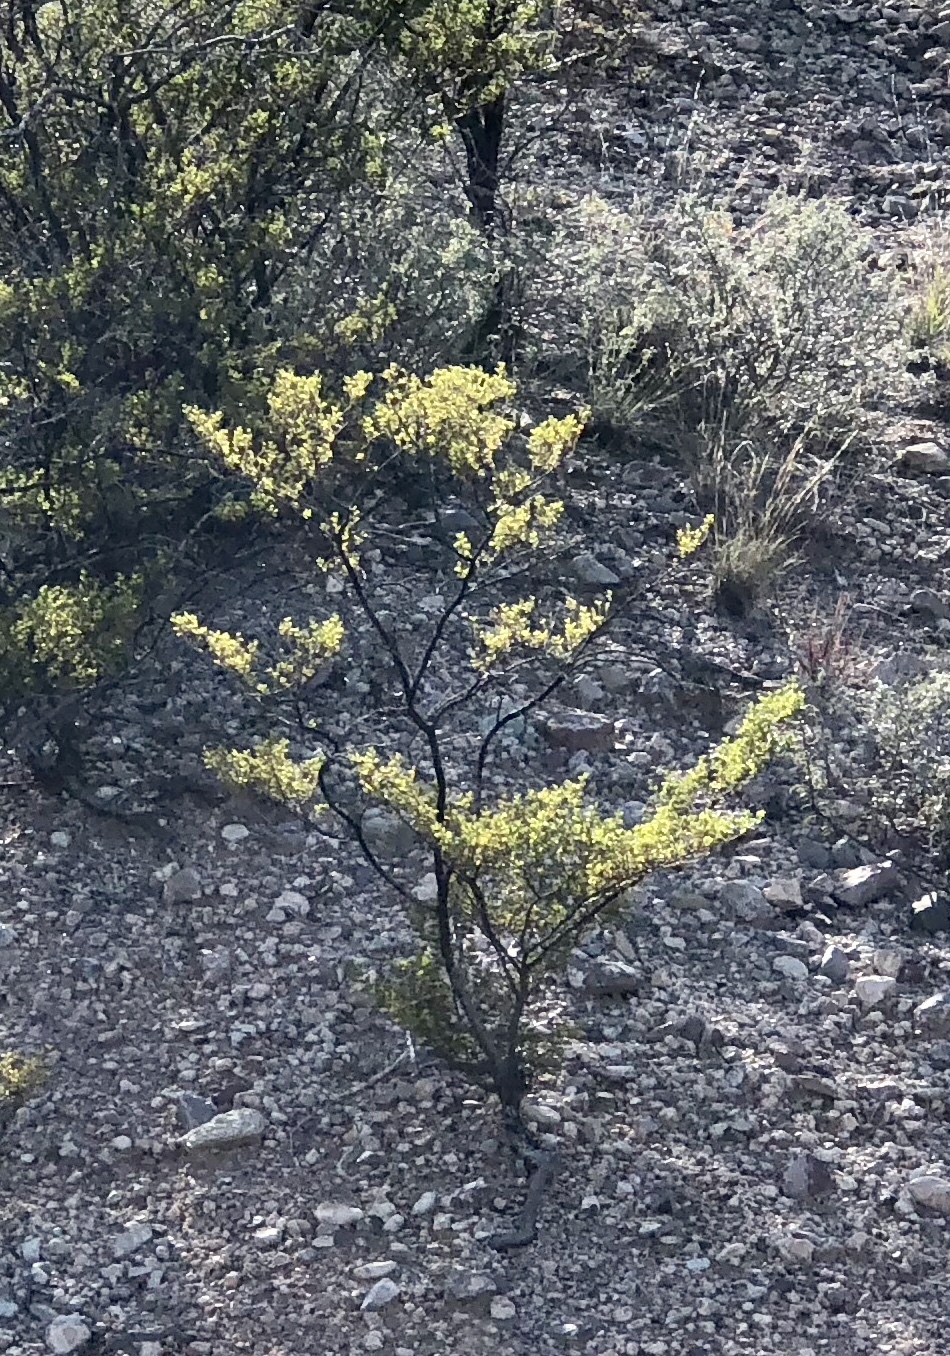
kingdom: Plantae
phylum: Tracheophyta
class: Magnoliopsida
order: Zygophyllales
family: Zygophyllaceae
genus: Larrea
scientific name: Larrea tridentata
